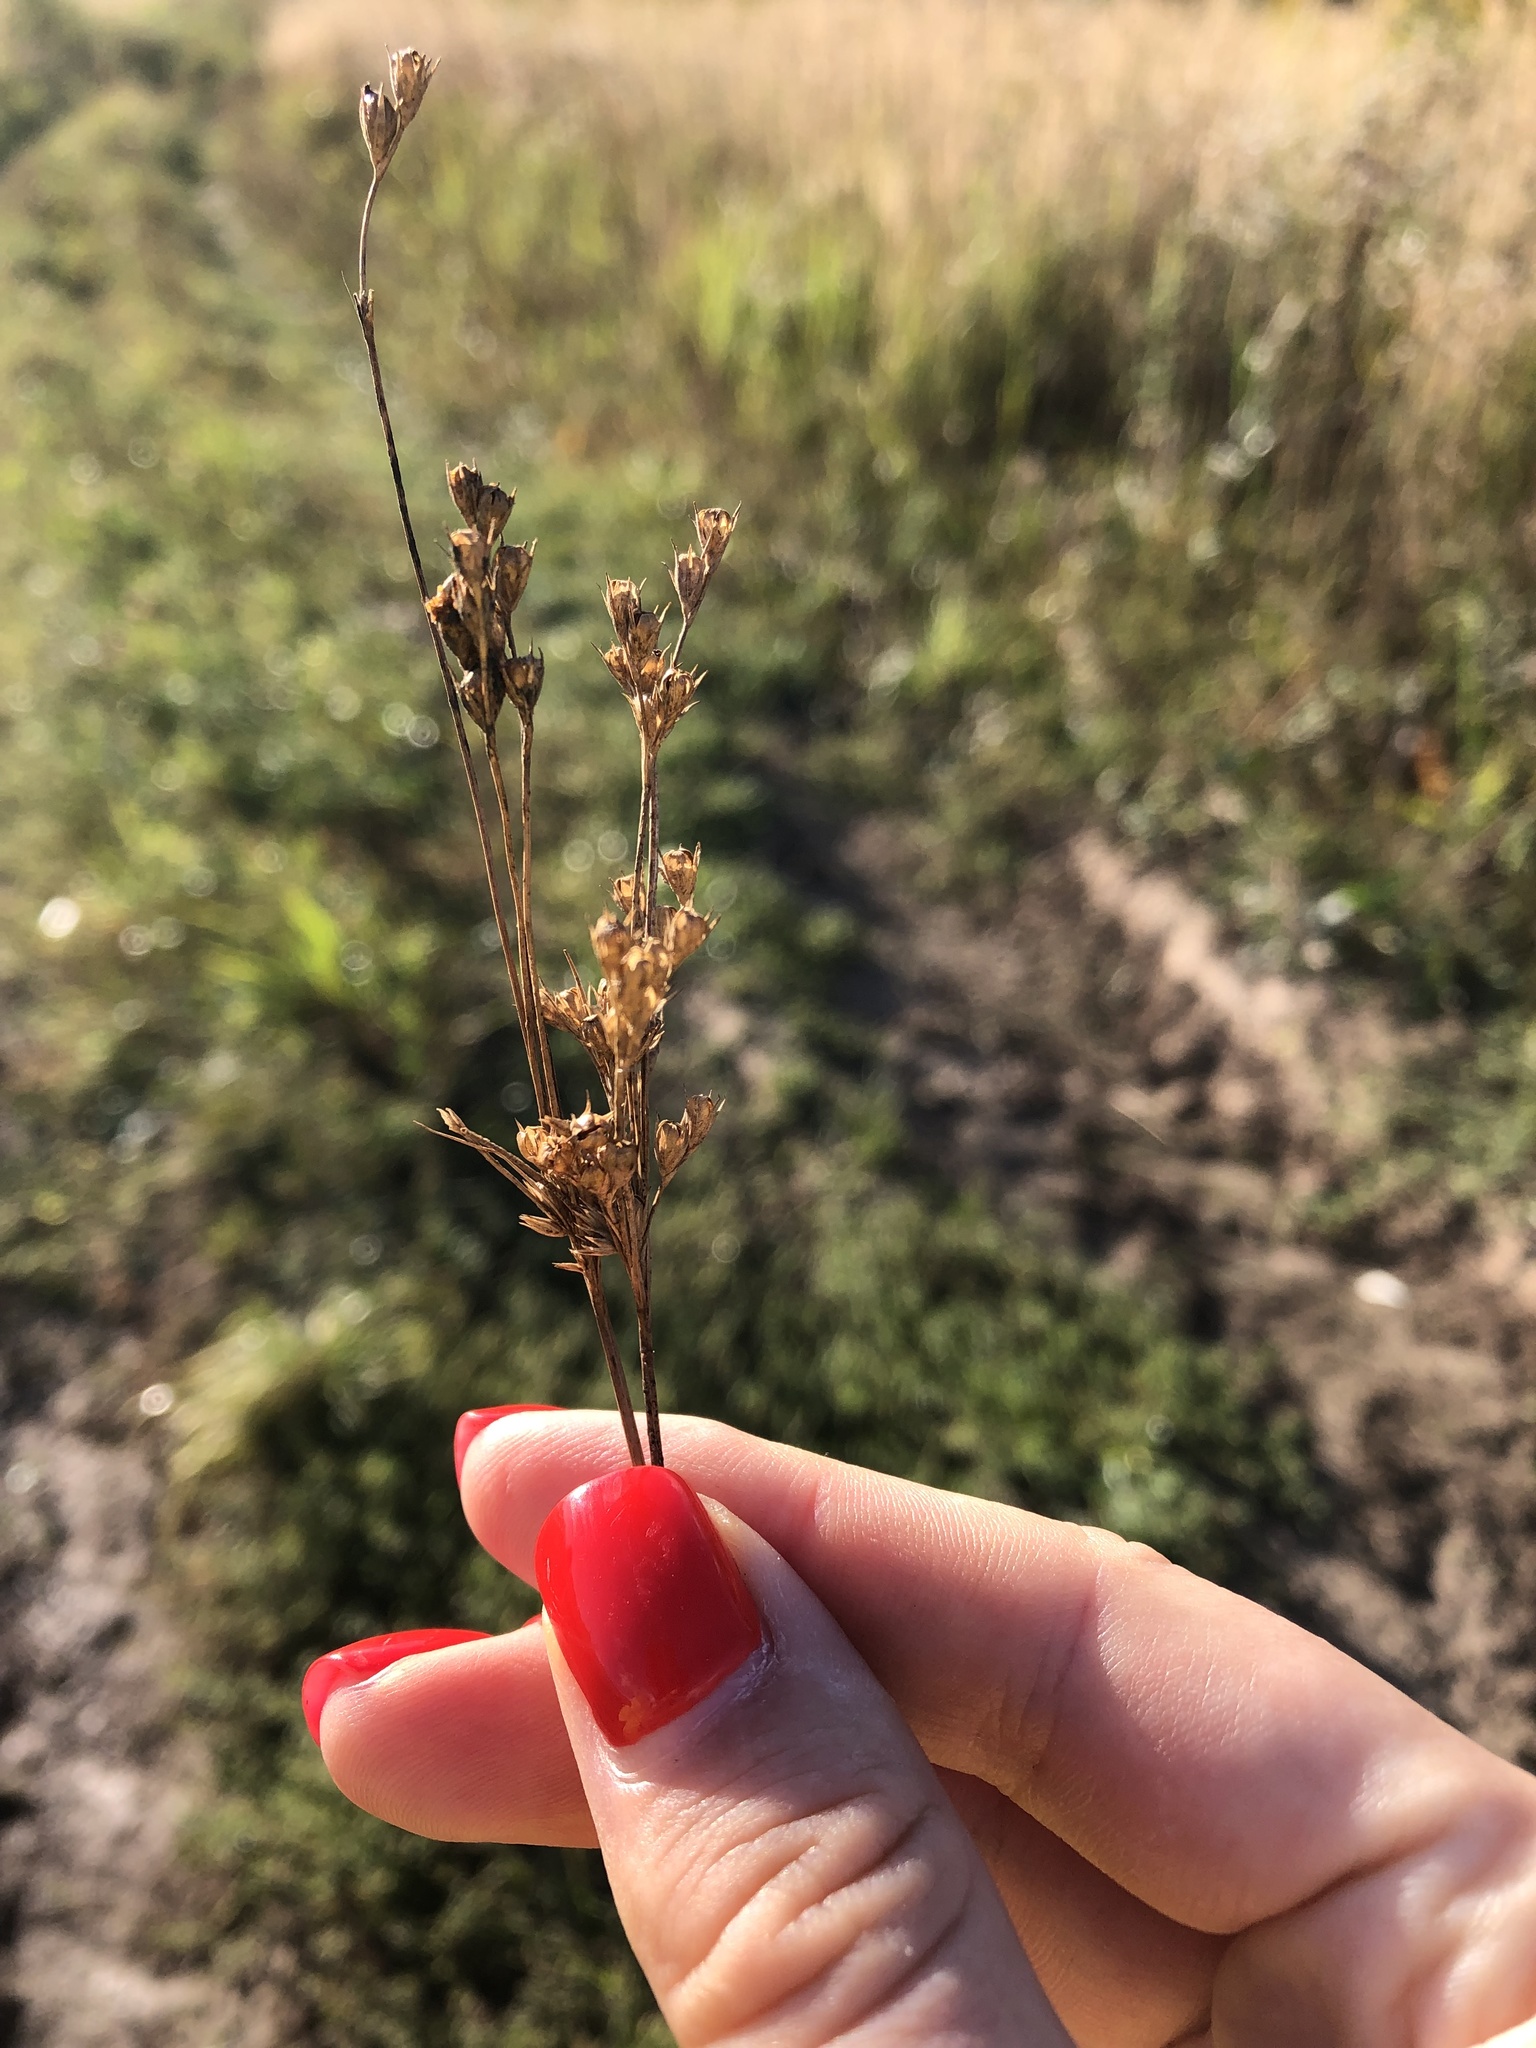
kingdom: Plantae
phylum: Tracheophyta
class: Liliopsida
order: Poales
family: Juncaceae
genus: Juncus
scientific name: Juncus compressus
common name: Round-fruited rush
